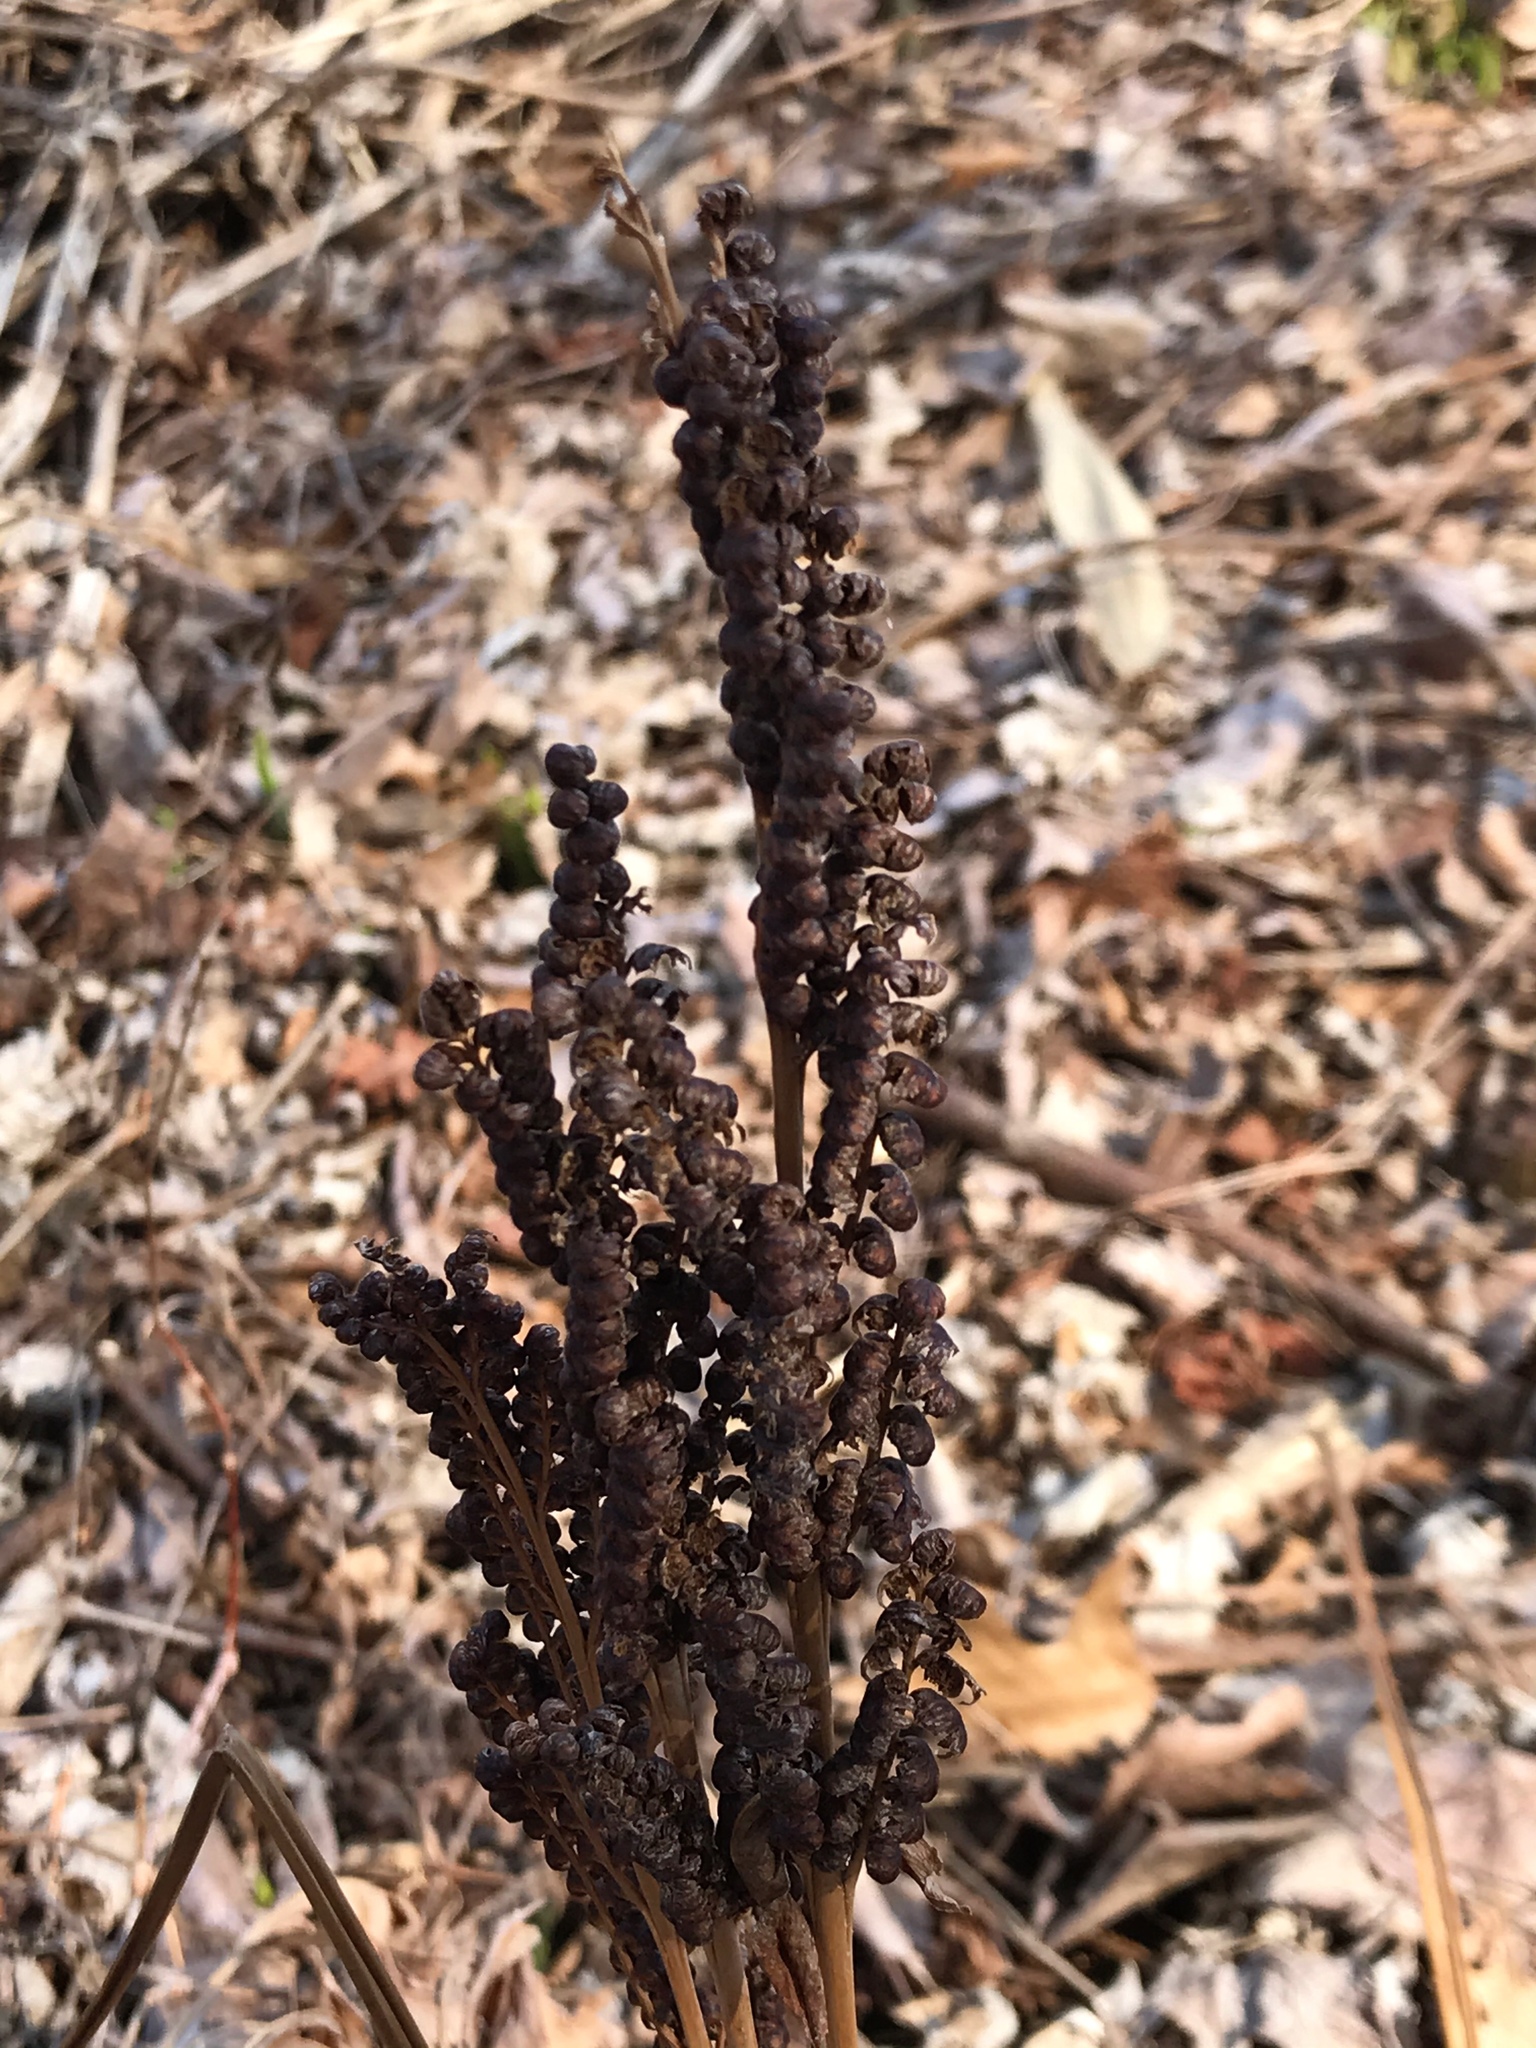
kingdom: Plantae
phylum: Tracheophyta
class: Polypodiopsida
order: Polypodiales
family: Onocleaceae
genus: Onoclea
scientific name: Onoclea sensibilis
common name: Sensitive fern
